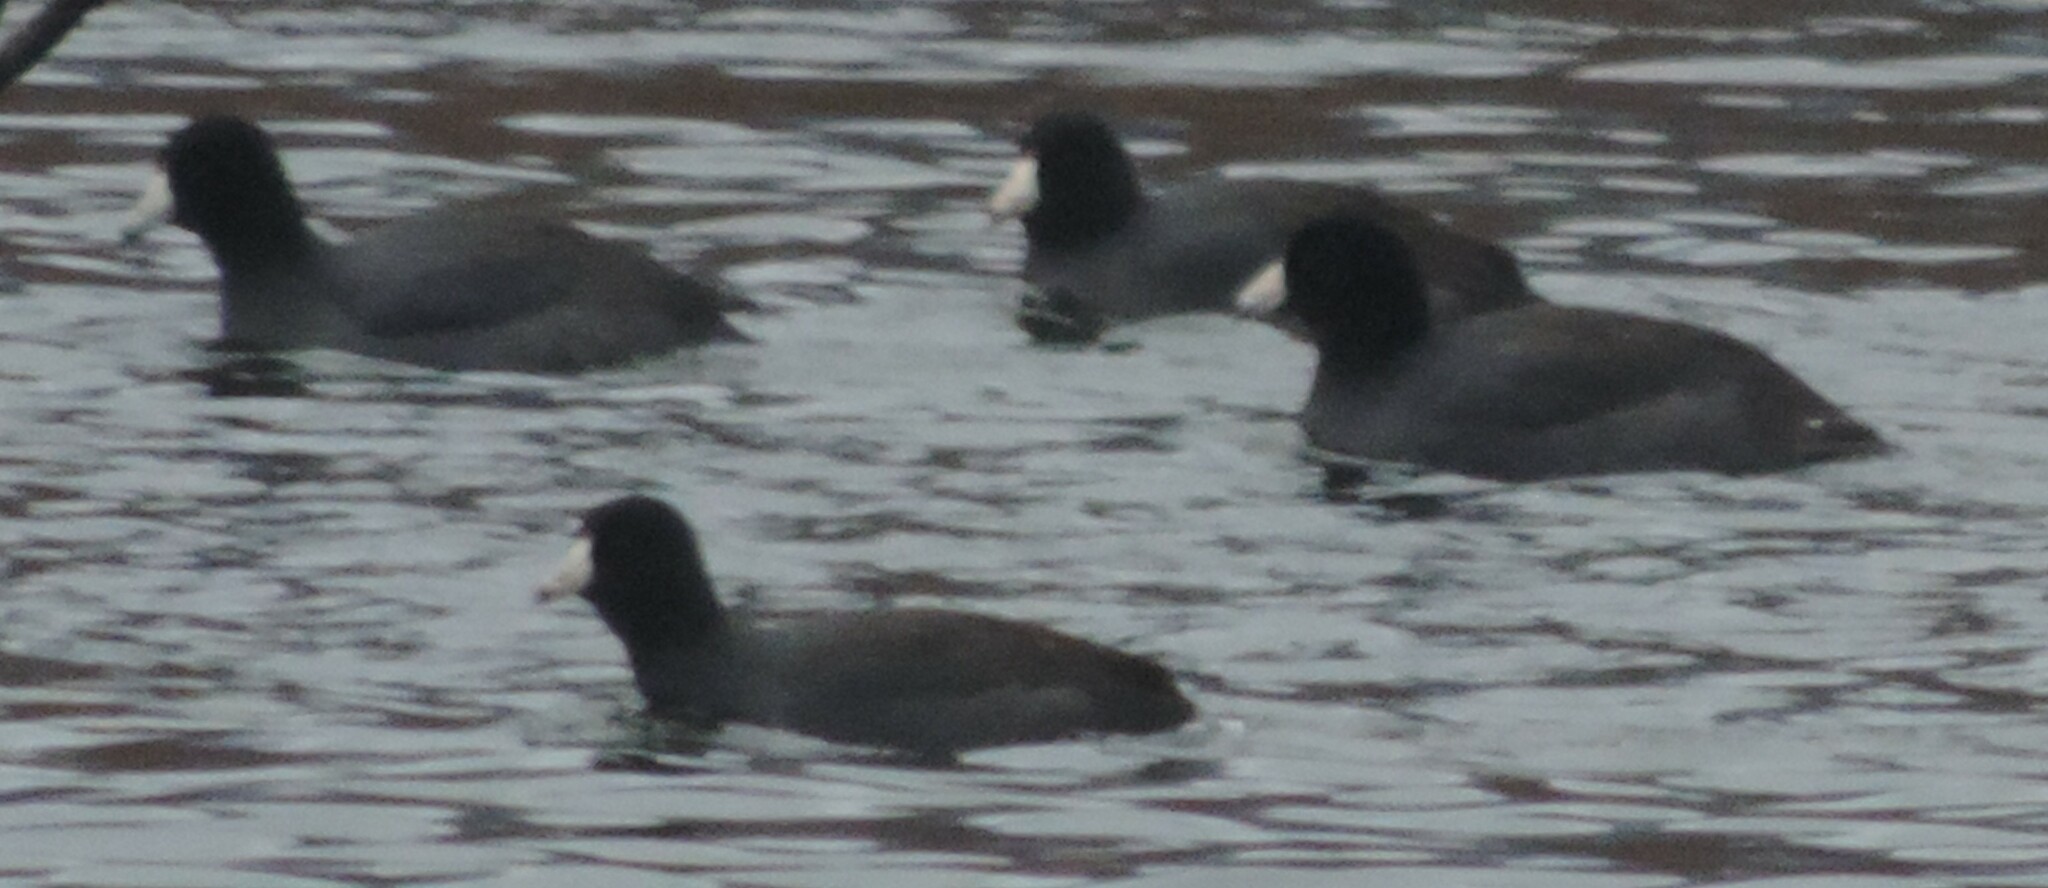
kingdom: Animalia
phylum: Chordata
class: Aves
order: Gruiformes
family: Rallidae
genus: Fulica
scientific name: Fulica americana
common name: American coot
